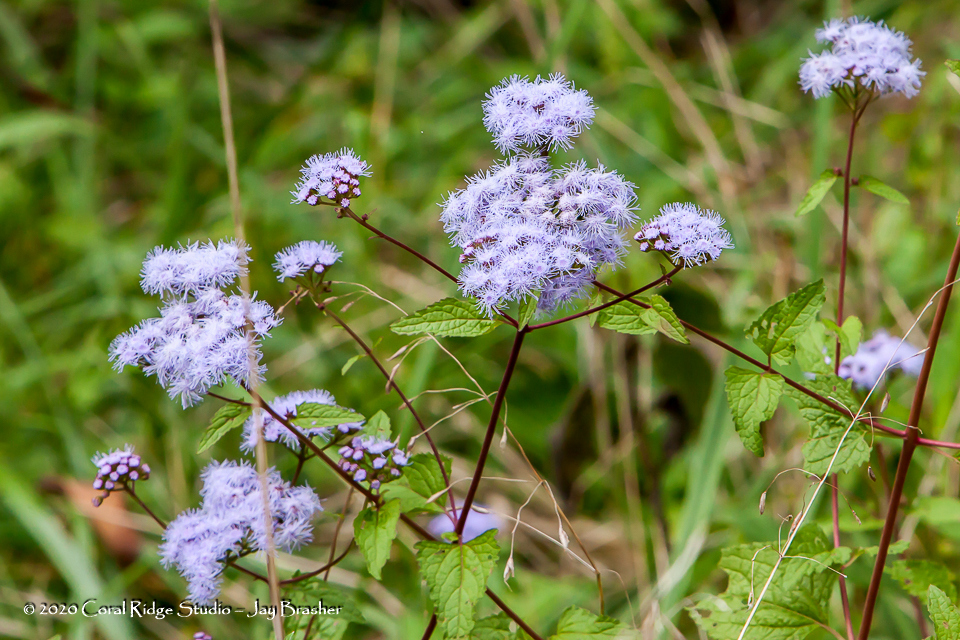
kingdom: Plantae
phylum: Tracheophyta
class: Magnoliopsida
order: Asterales
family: Asteraceae
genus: Conoclinium
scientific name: Conoclinium coelestinum
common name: Blue mistflower
